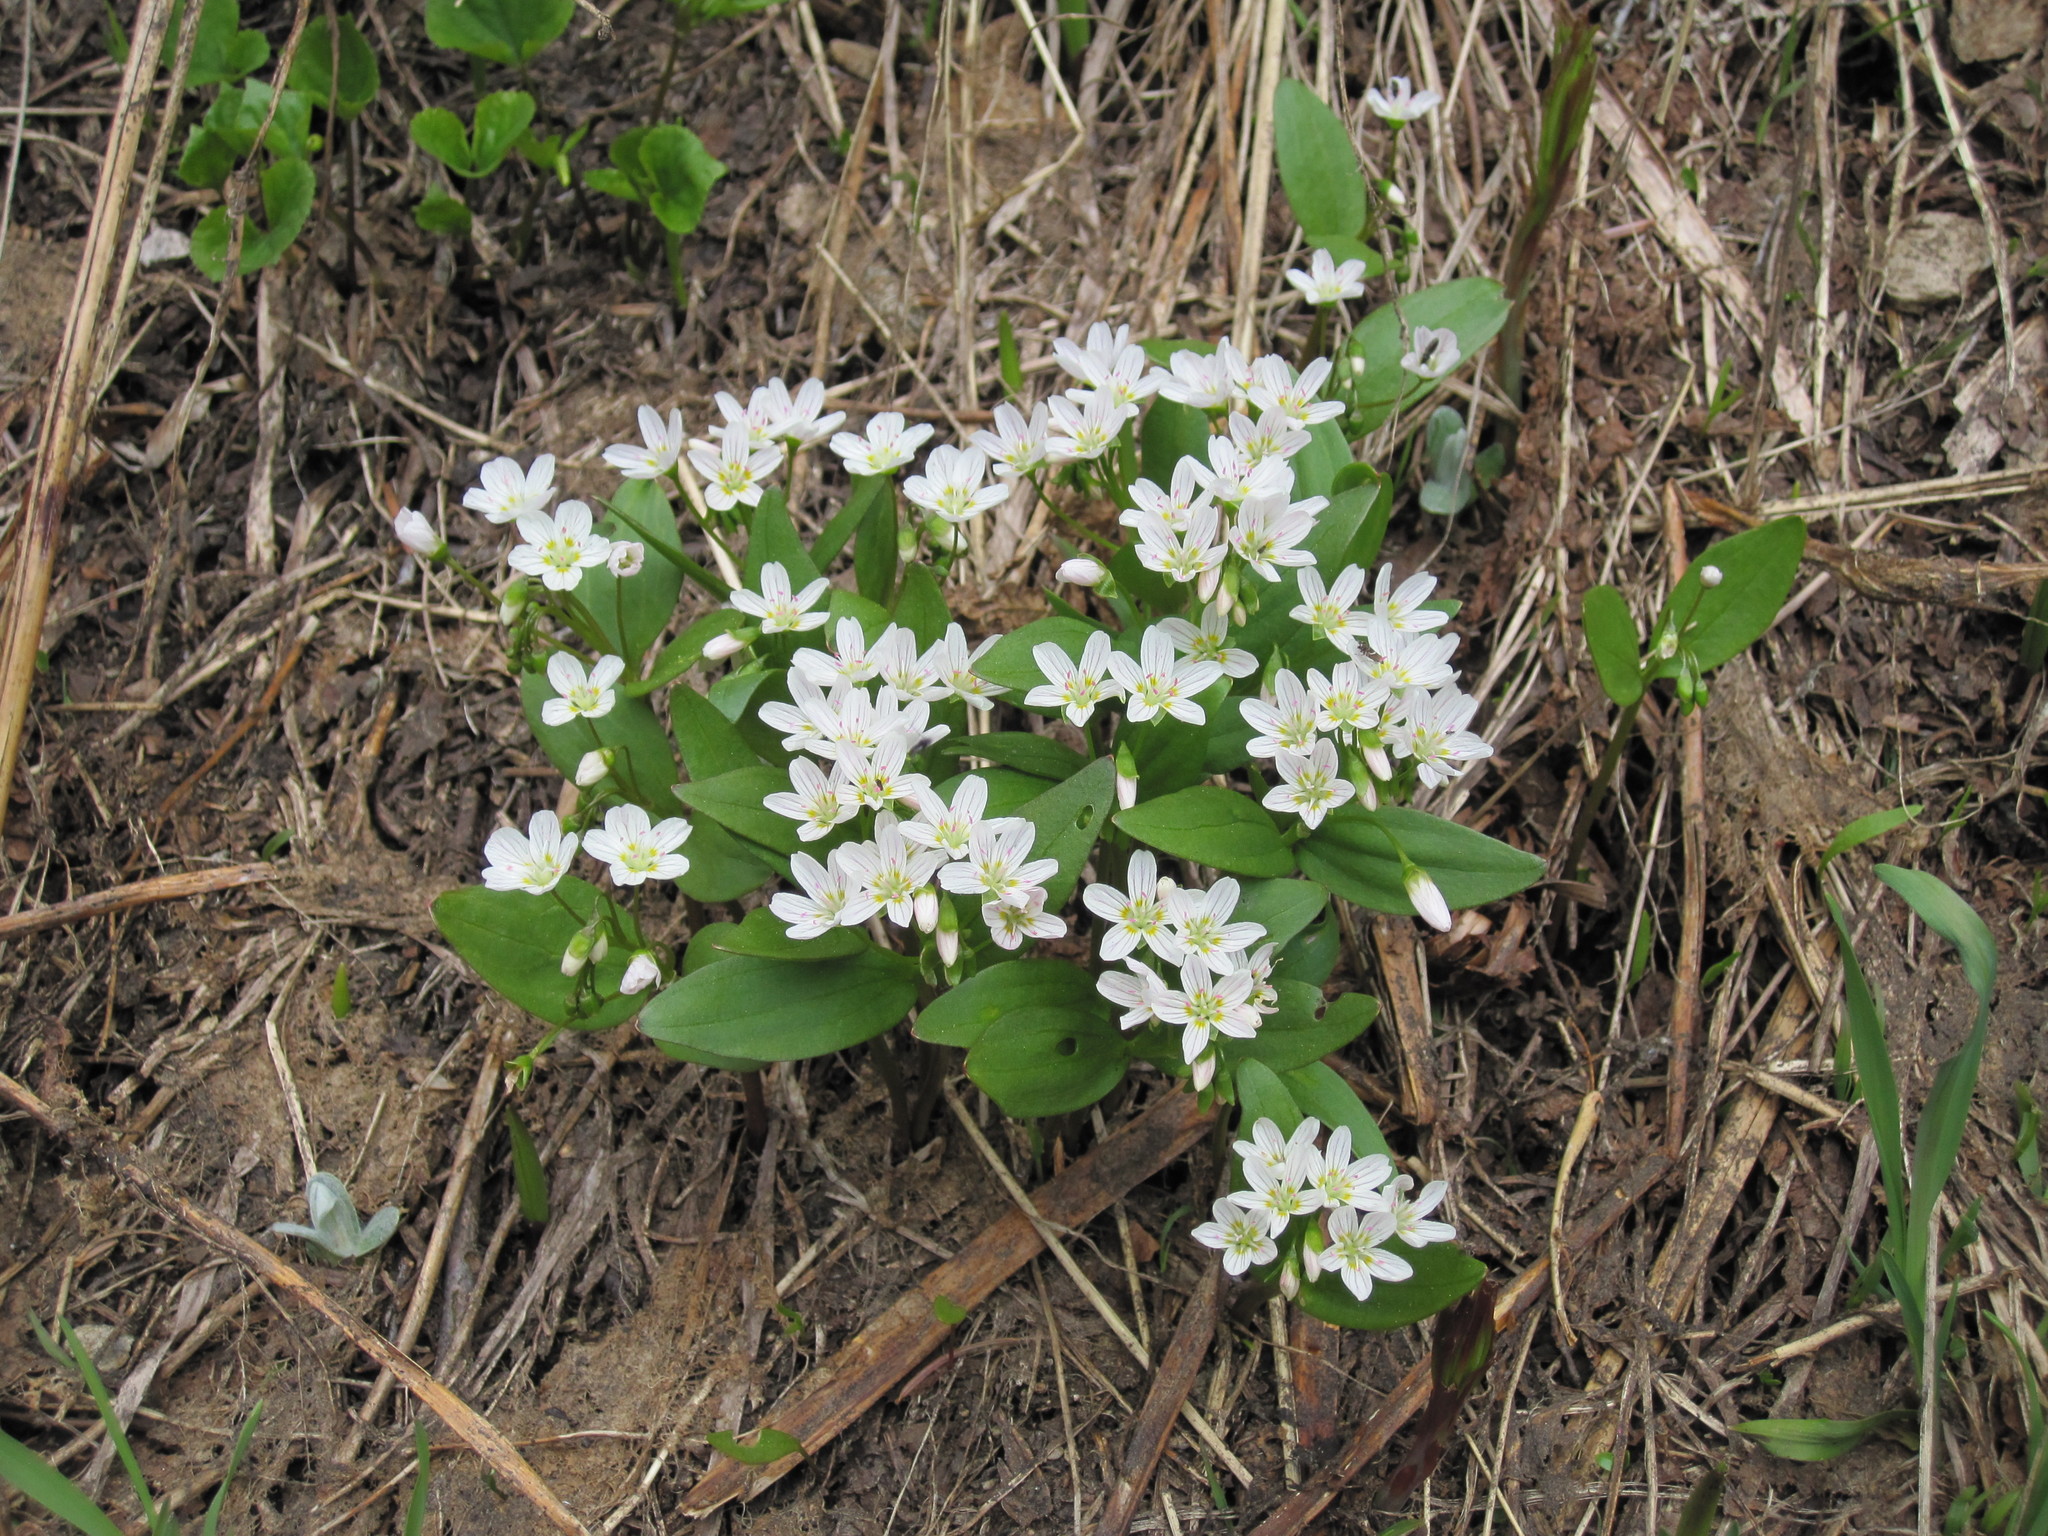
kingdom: Plantae
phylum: Tracheophyta
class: Magnoliopsida
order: Caryophyllales
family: Montiaceae
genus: Claytonia
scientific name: Claytonia lanceolata
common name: Western spring-beauty
